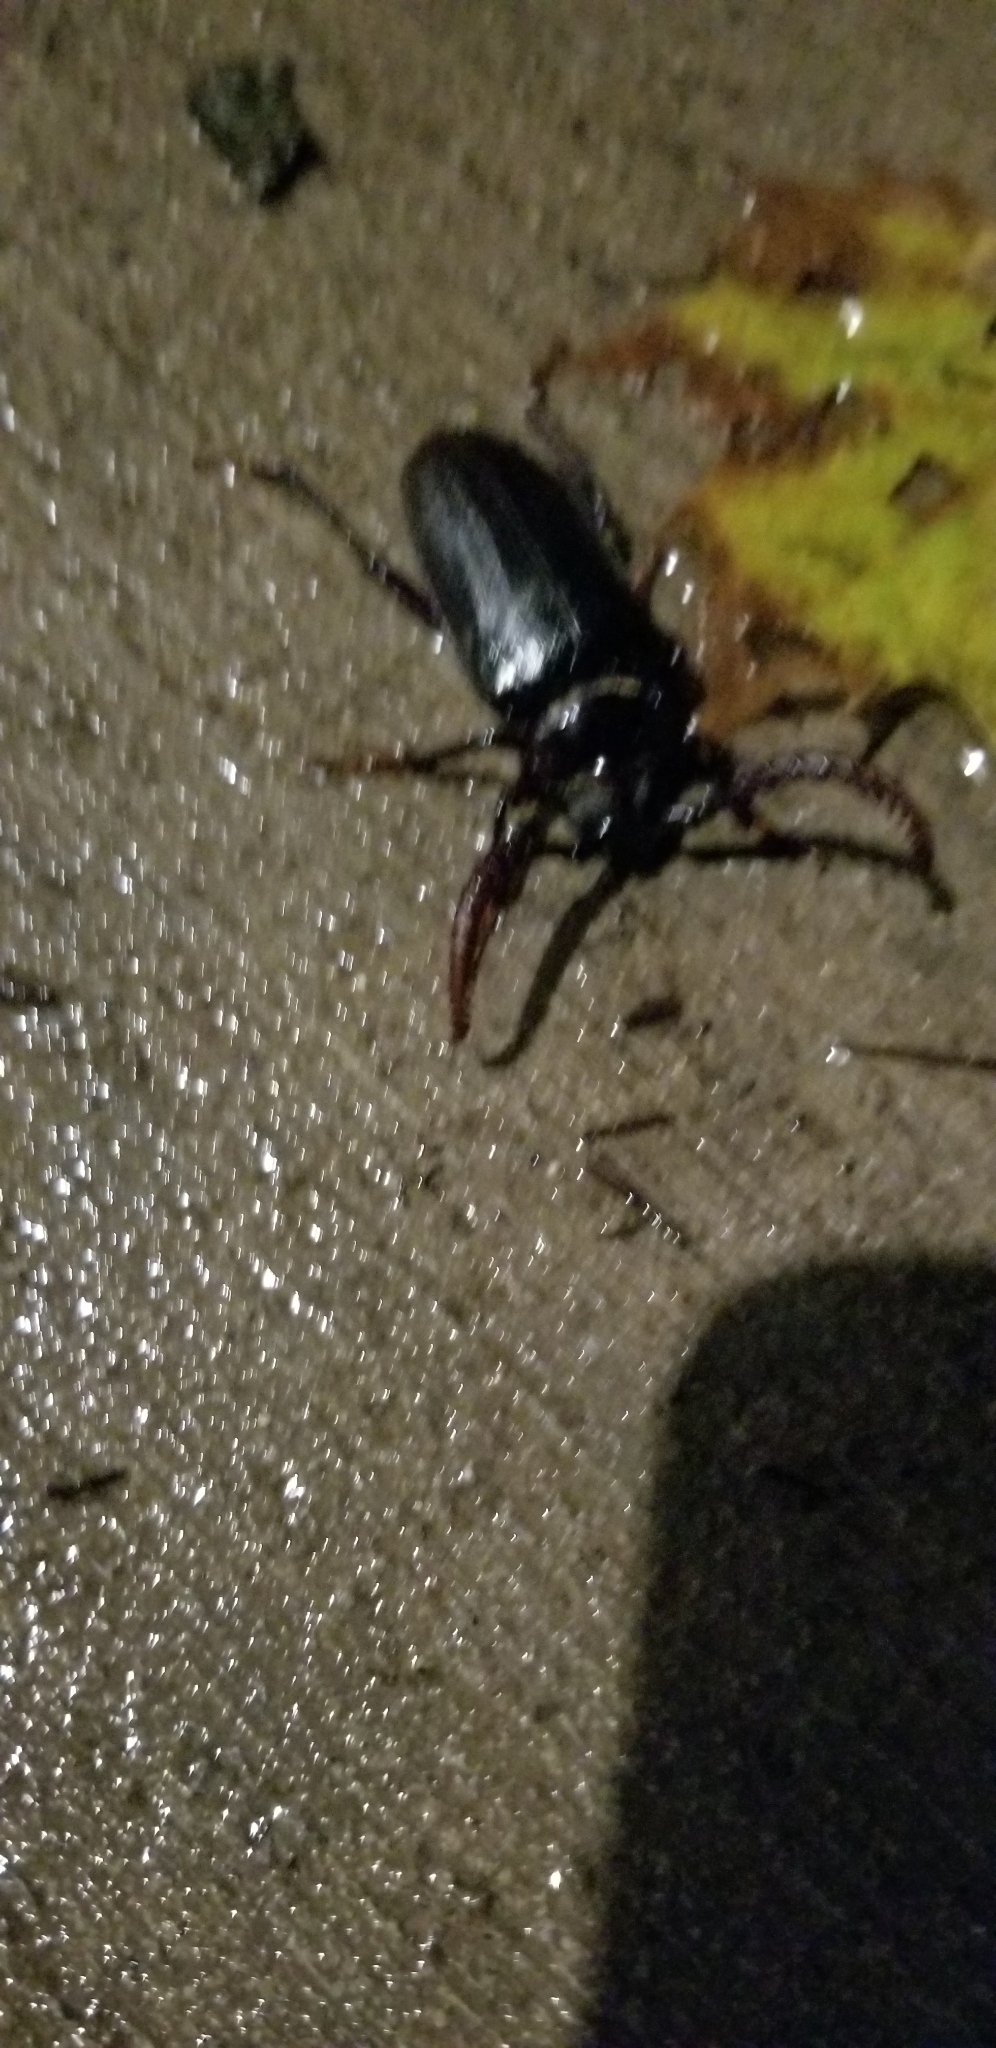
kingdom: Animalia
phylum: Arthropoda
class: Insecta
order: Coleoptera
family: Cerambycidae
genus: Prionus
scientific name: Prionus imbricornis
